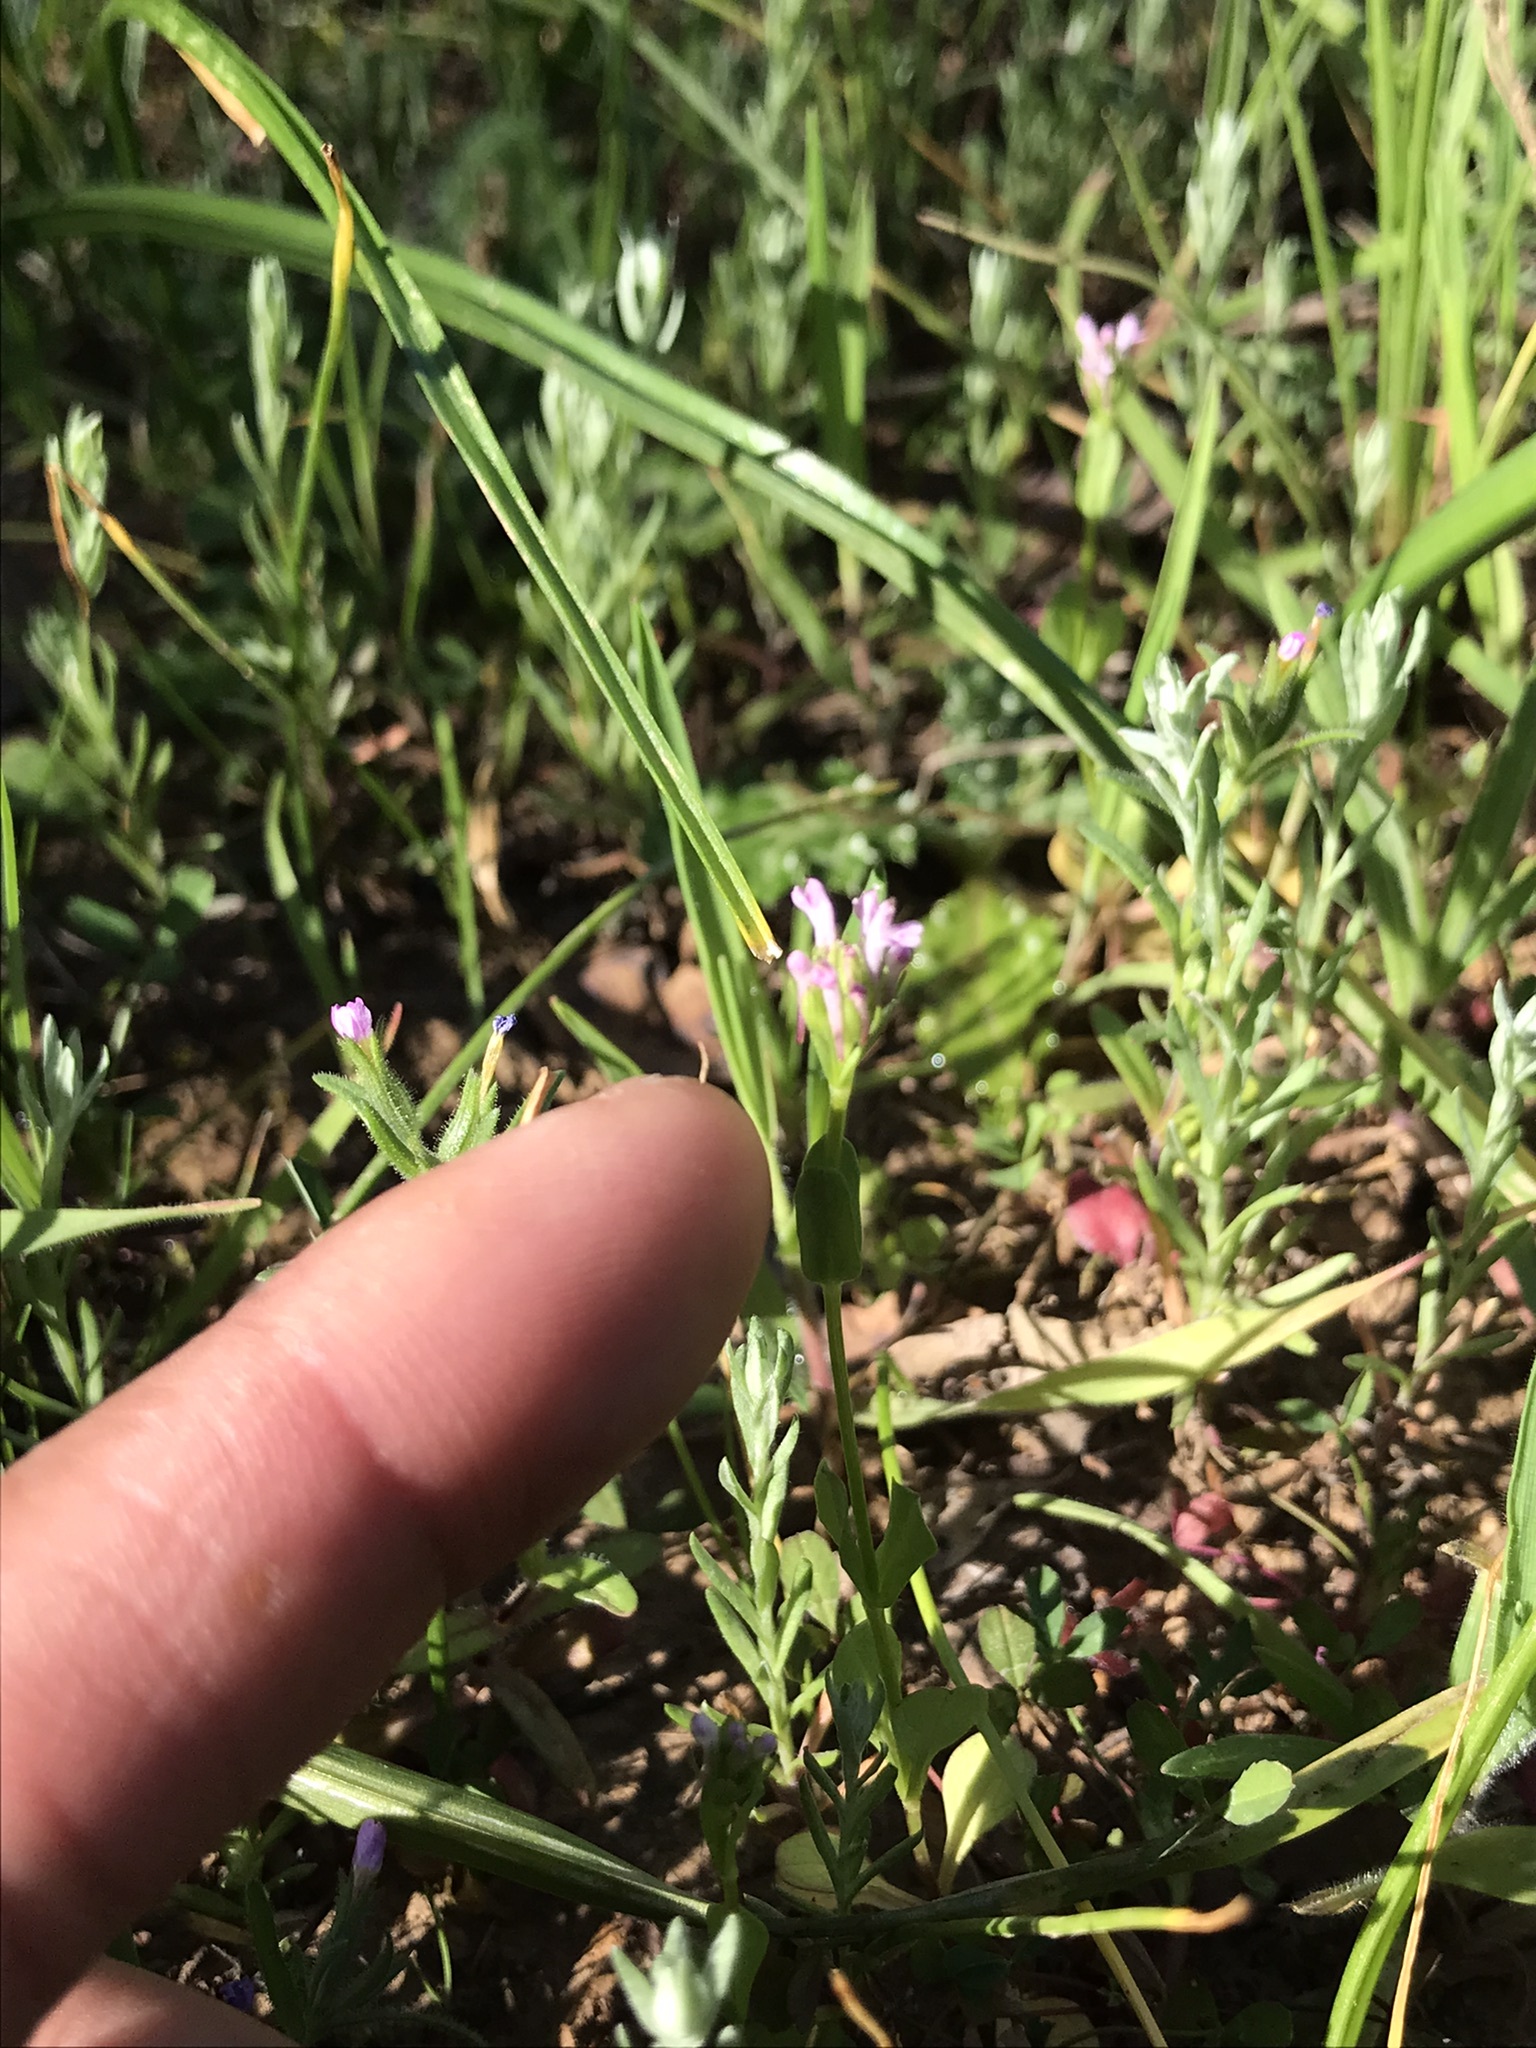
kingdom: Plantae
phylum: Tracheophyta
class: Magnoliopsida
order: Dipsacales
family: Caprifoliaceae
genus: Plectritis
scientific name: Plectritis ciliosa
